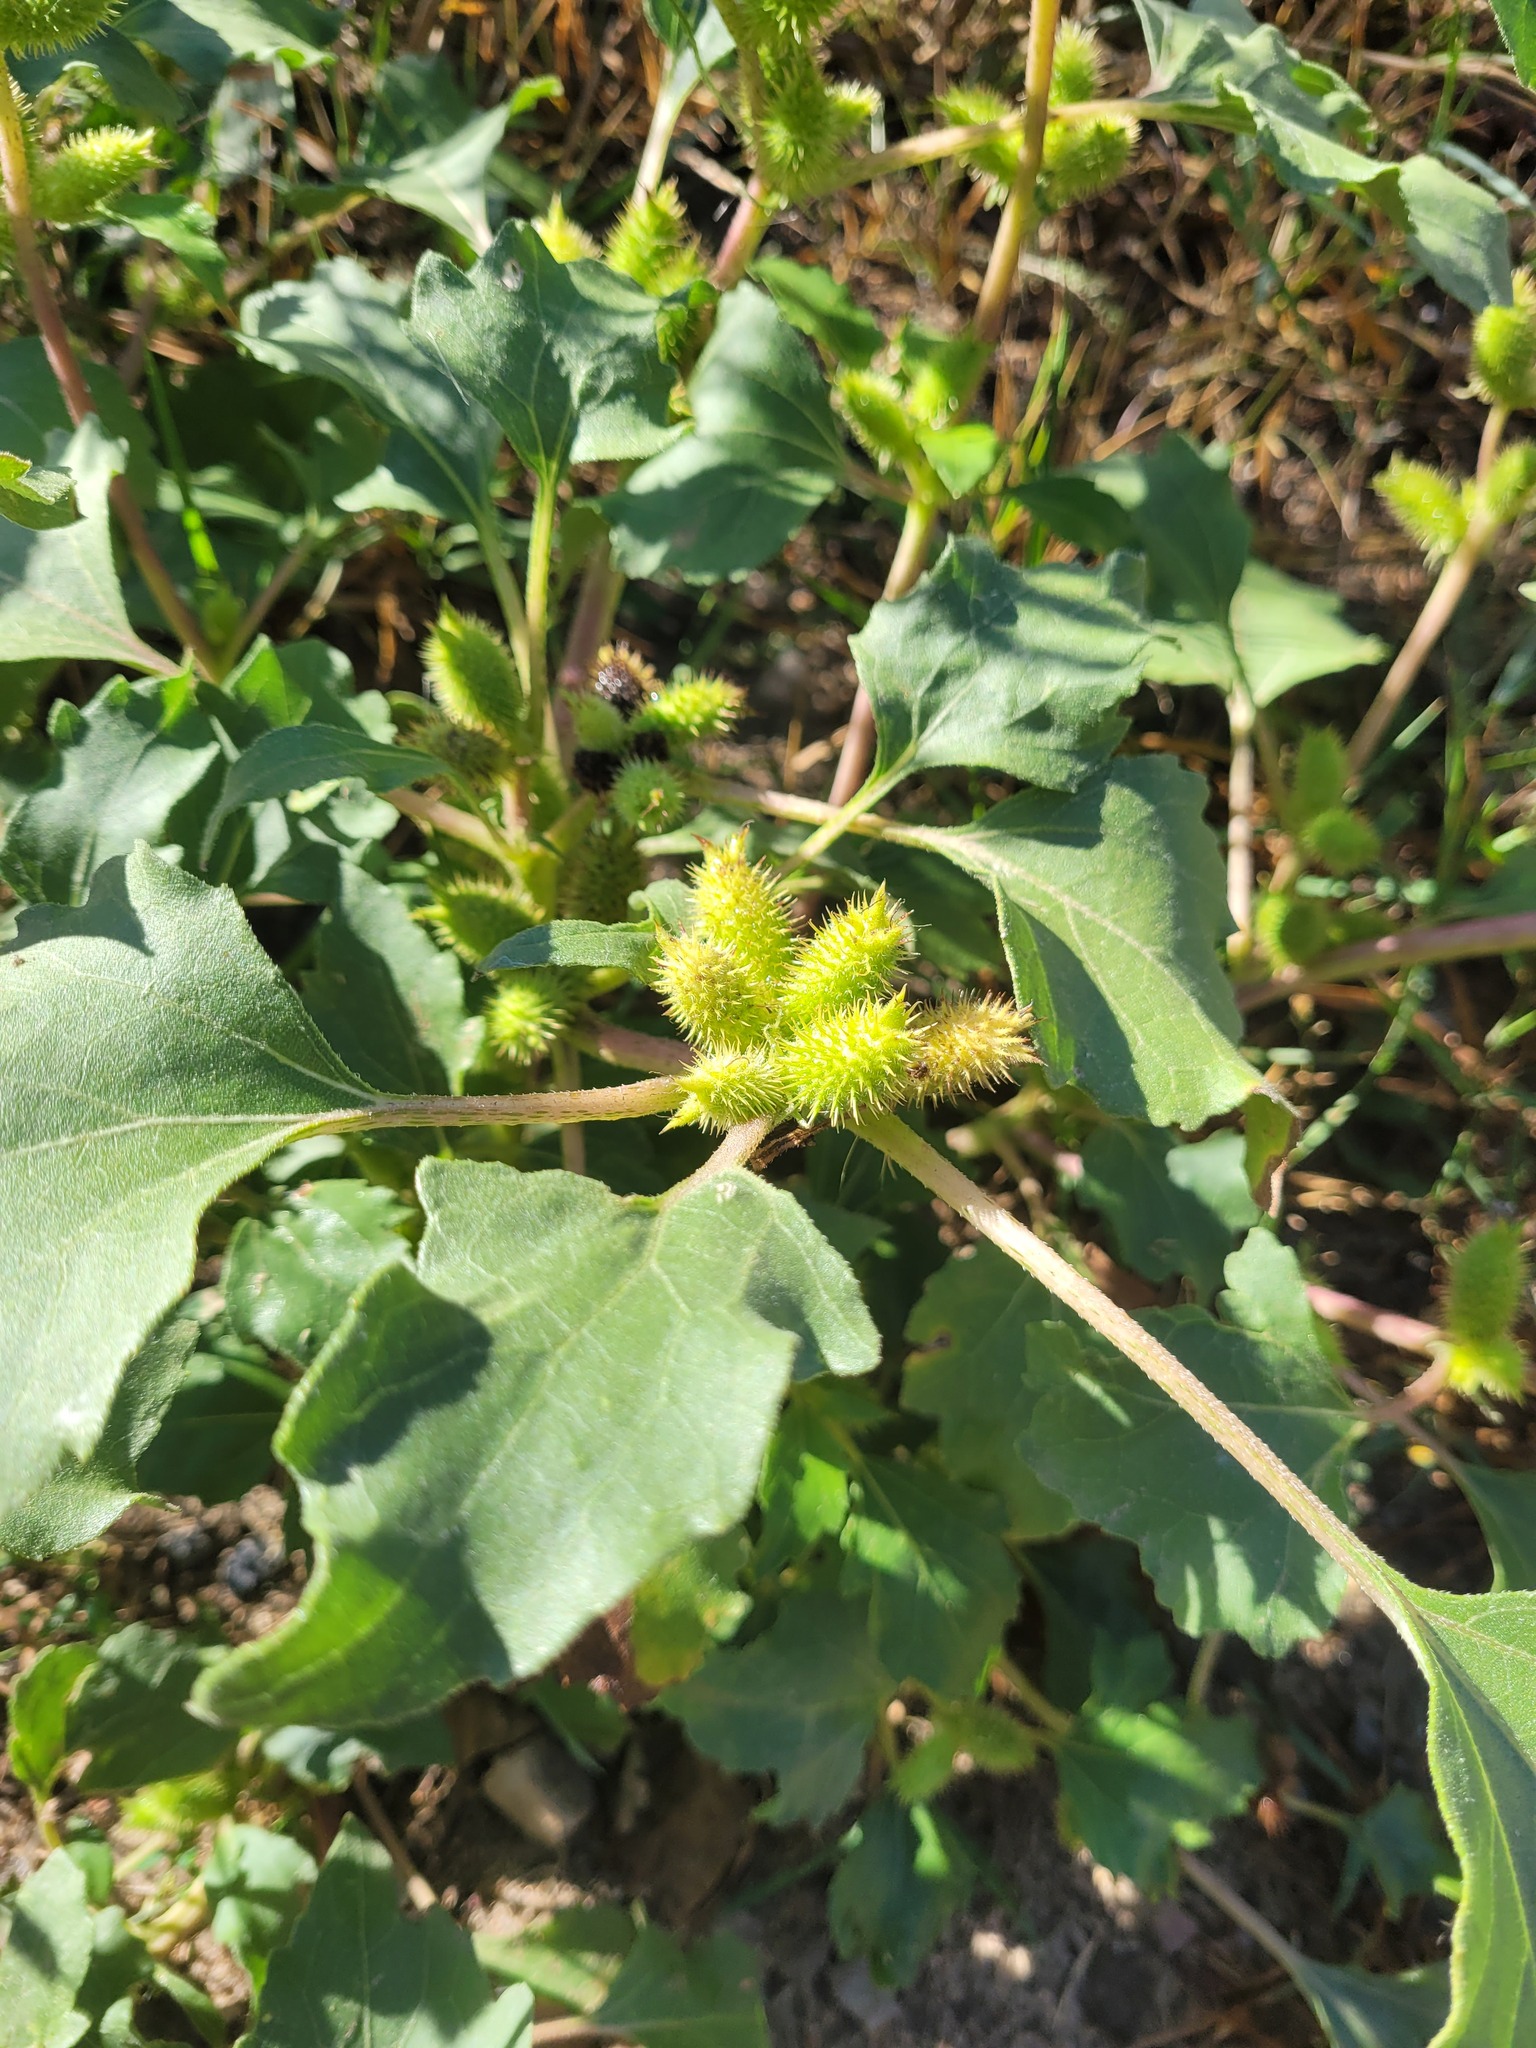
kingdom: Plantae
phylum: Tracheophyta
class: Magnoliopsida
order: Asterales
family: Asteraceae
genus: Xanthium
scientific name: Xanthium orientale
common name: Californian burr
